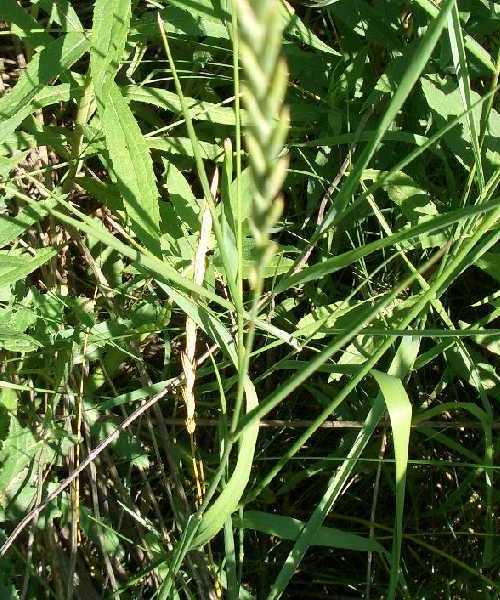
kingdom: Plantae
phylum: Tracheophyta
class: Liliopsida
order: Poales
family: Poaceae
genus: Elymus
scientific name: Elymus repens
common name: Quackgrass
